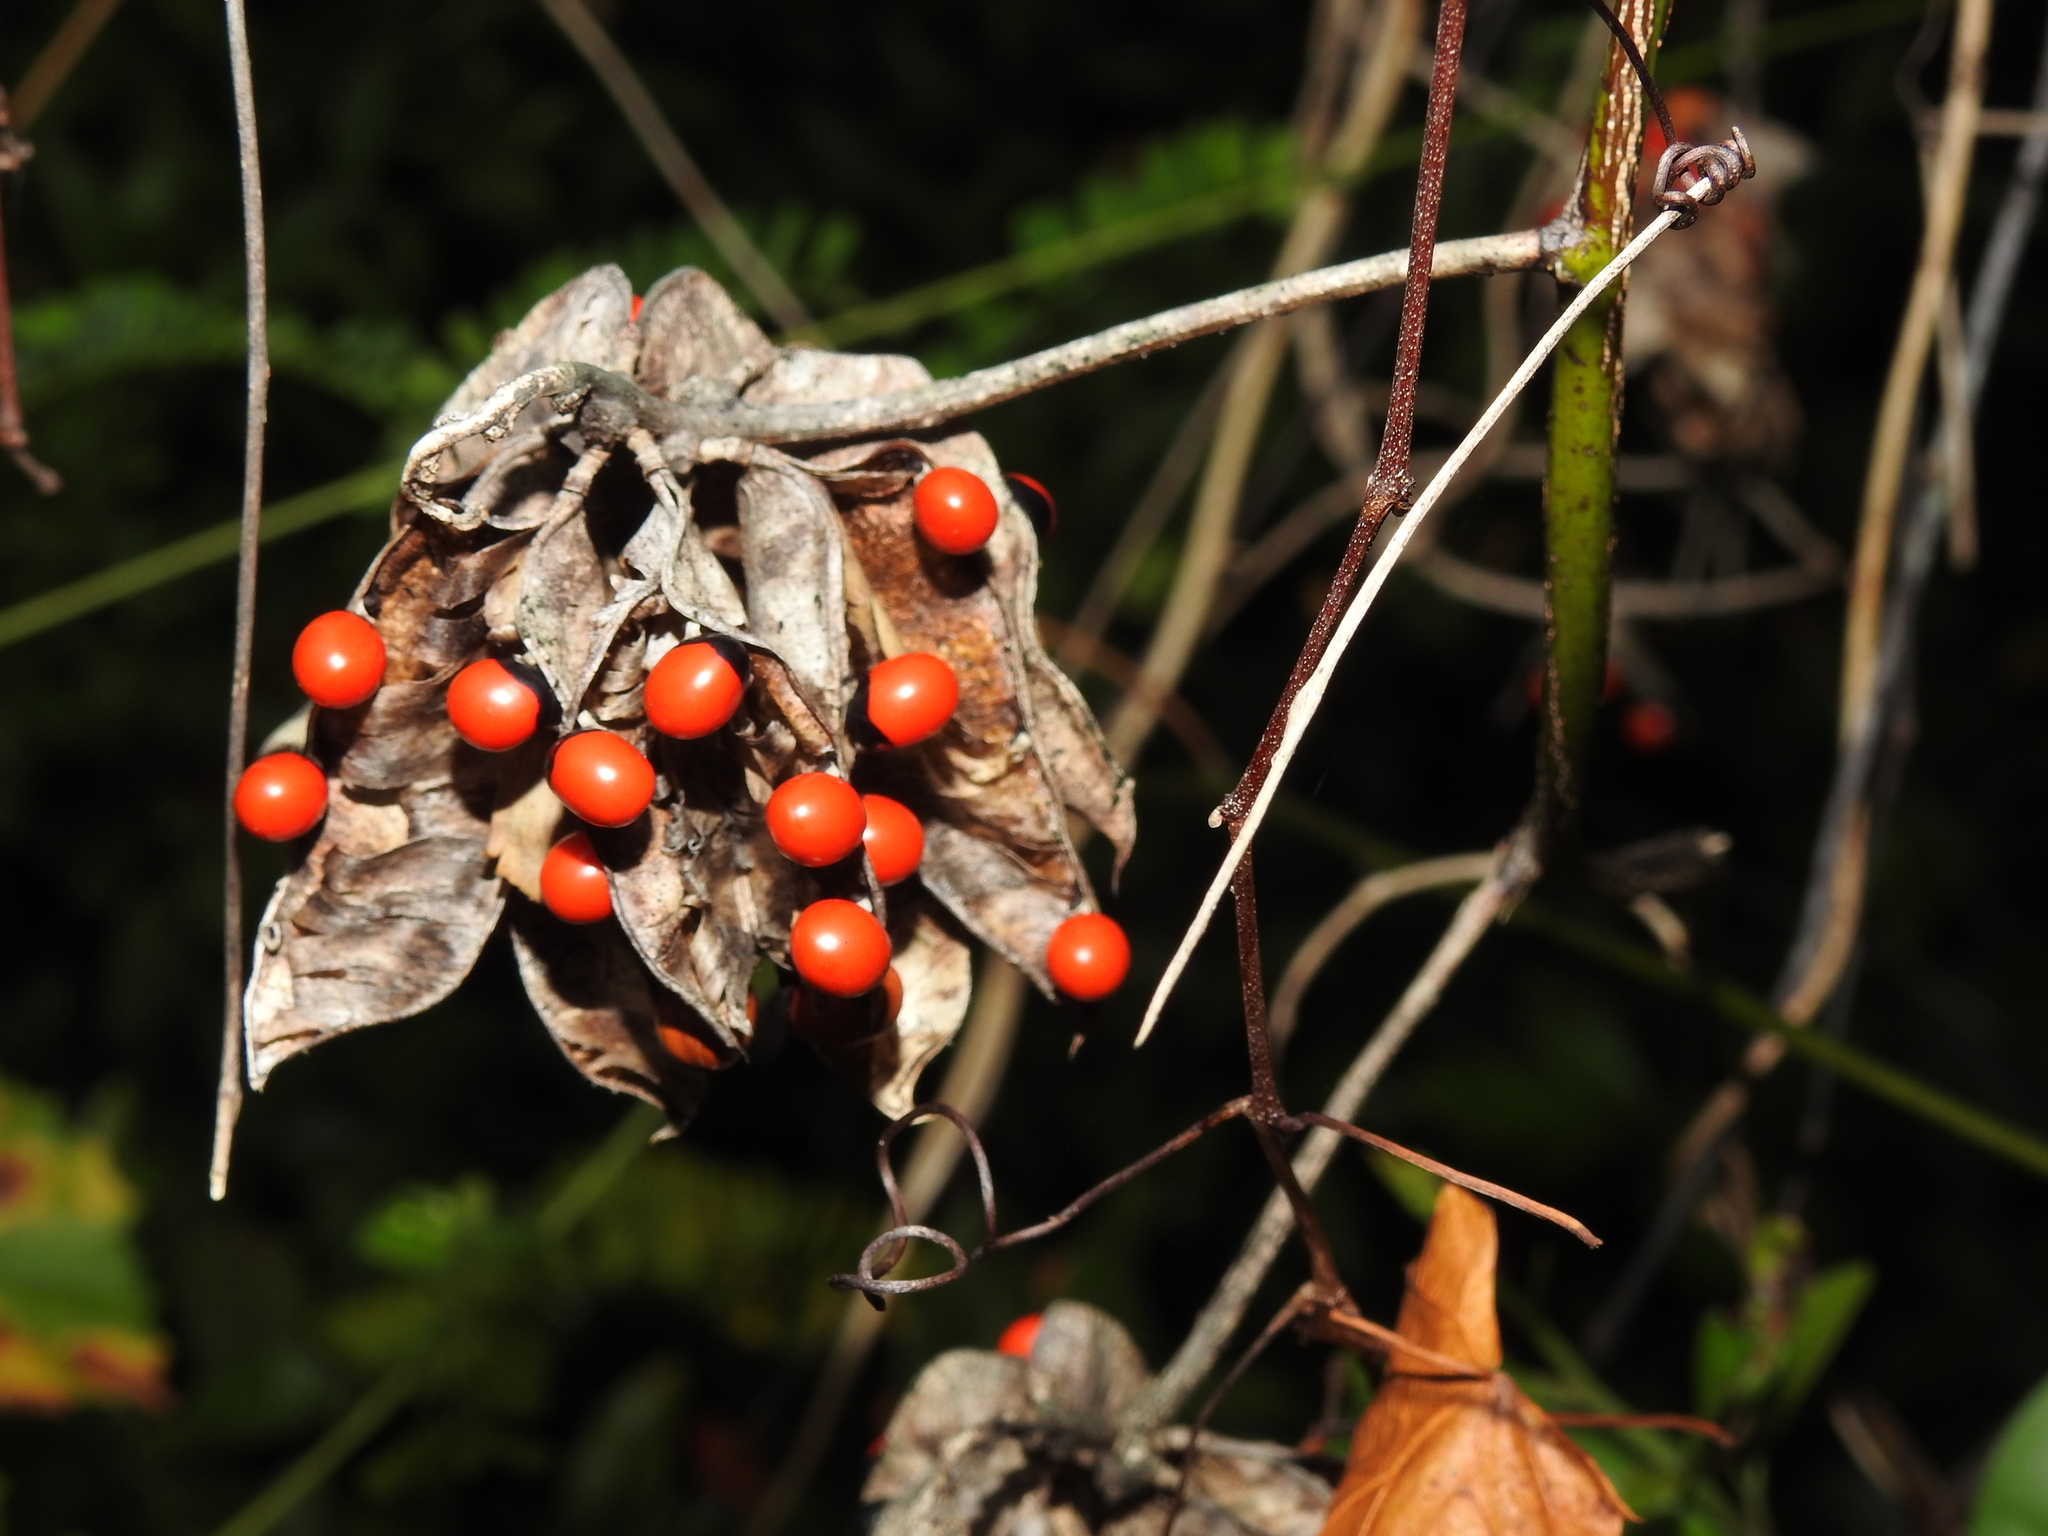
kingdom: Plantae
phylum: Tracheophyta
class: Magnoliopsida
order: Fabales
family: Fabaceae
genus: Abrus
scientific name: Abrus precatorius
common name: Rosarypea
